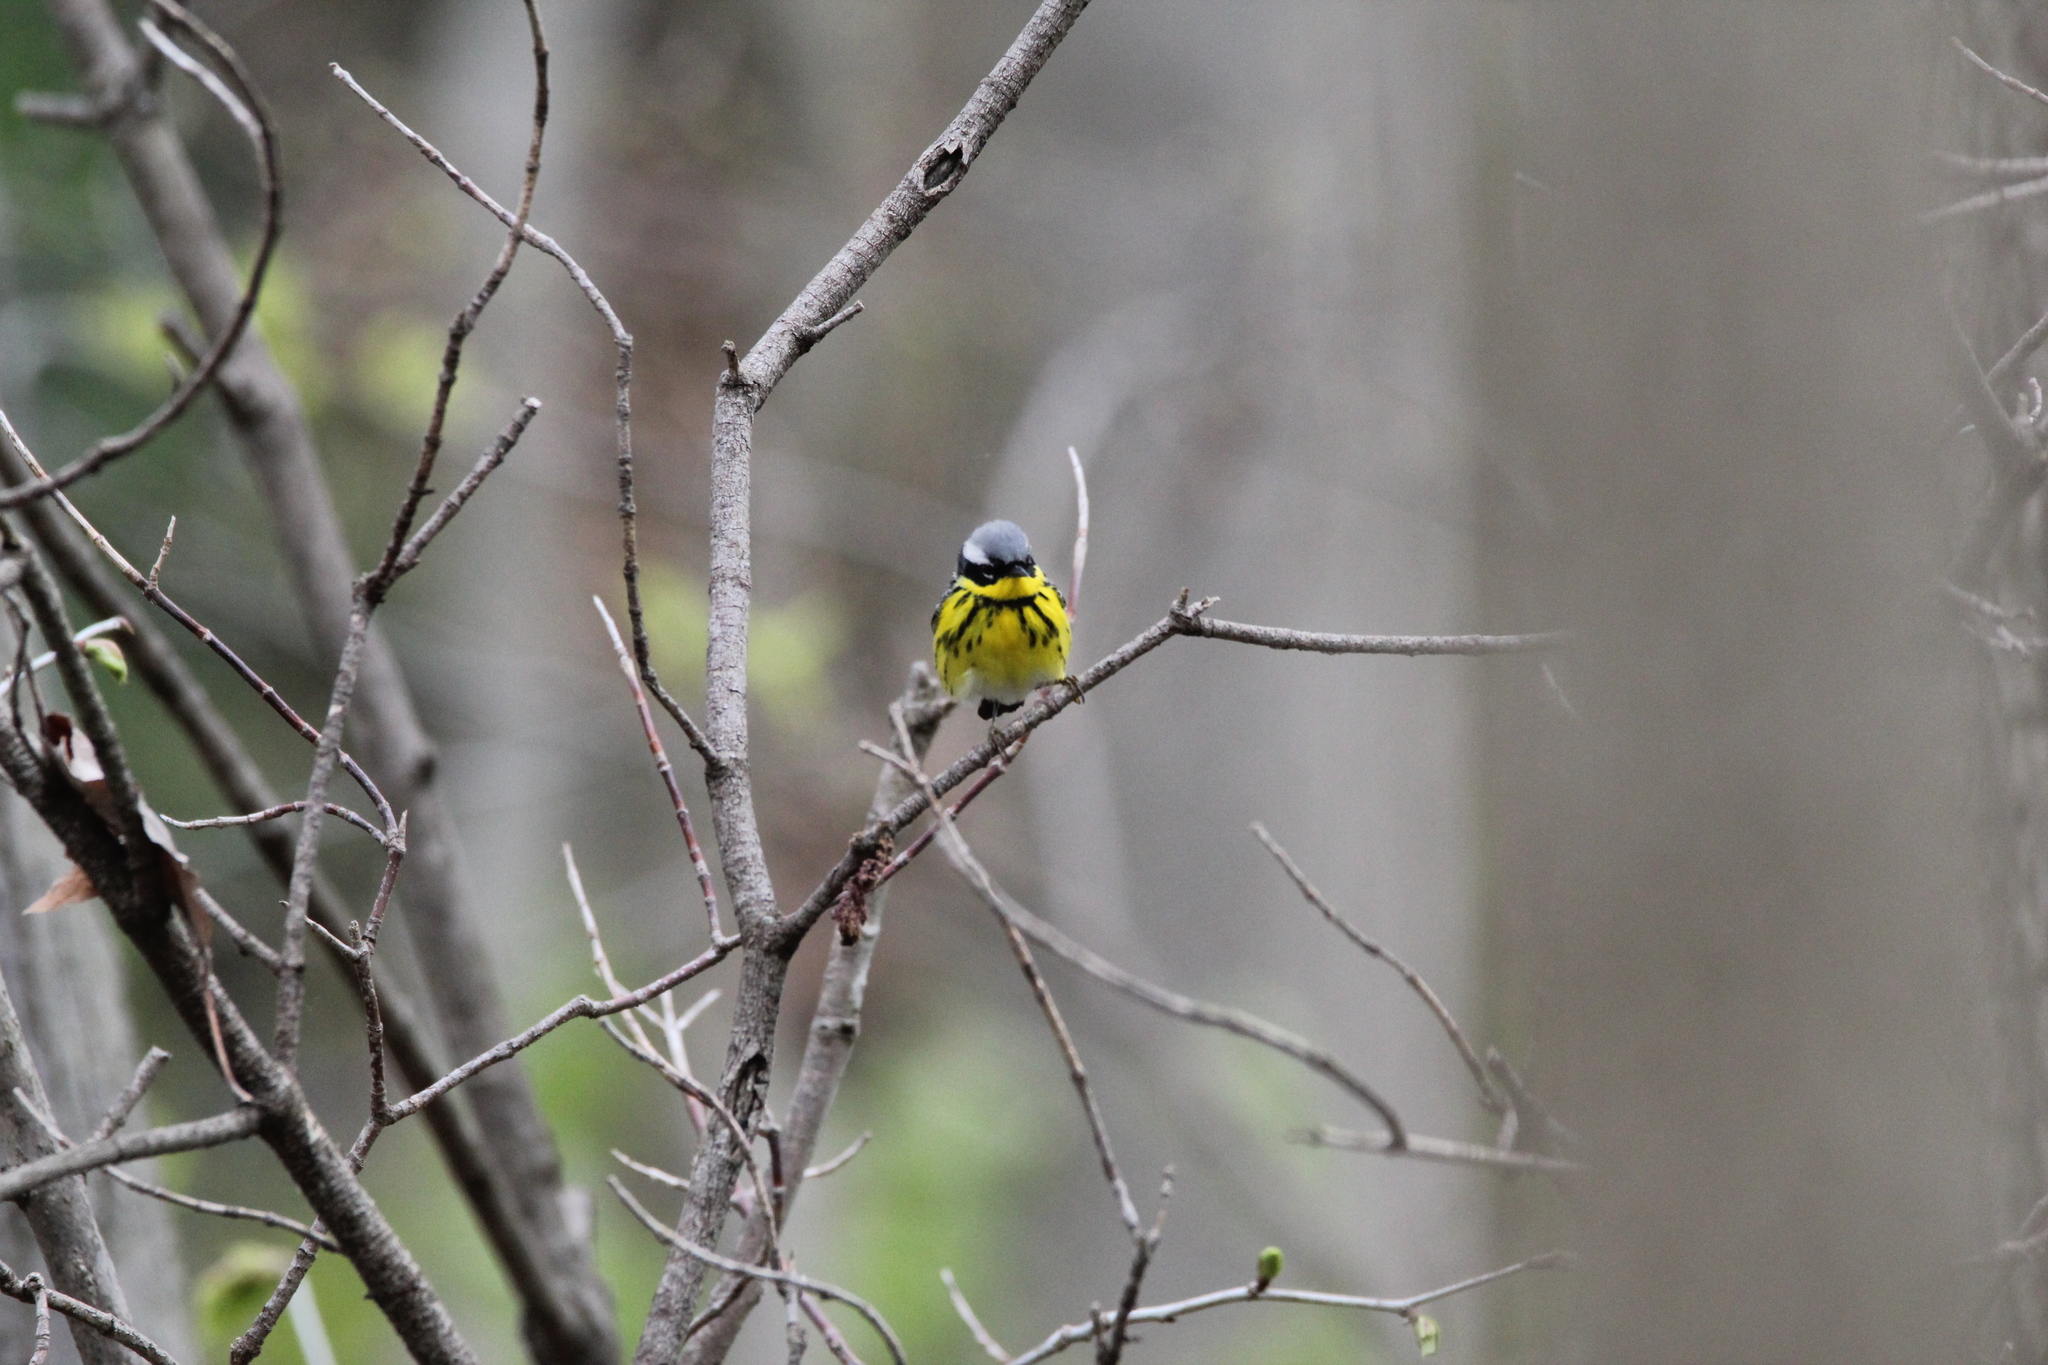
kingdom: Animalia
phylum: Chordata
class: Aves
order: Passeriformes
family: Parulidae
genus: Setophaga
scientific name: Setophaga magnolia
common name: Magnolia warbler
